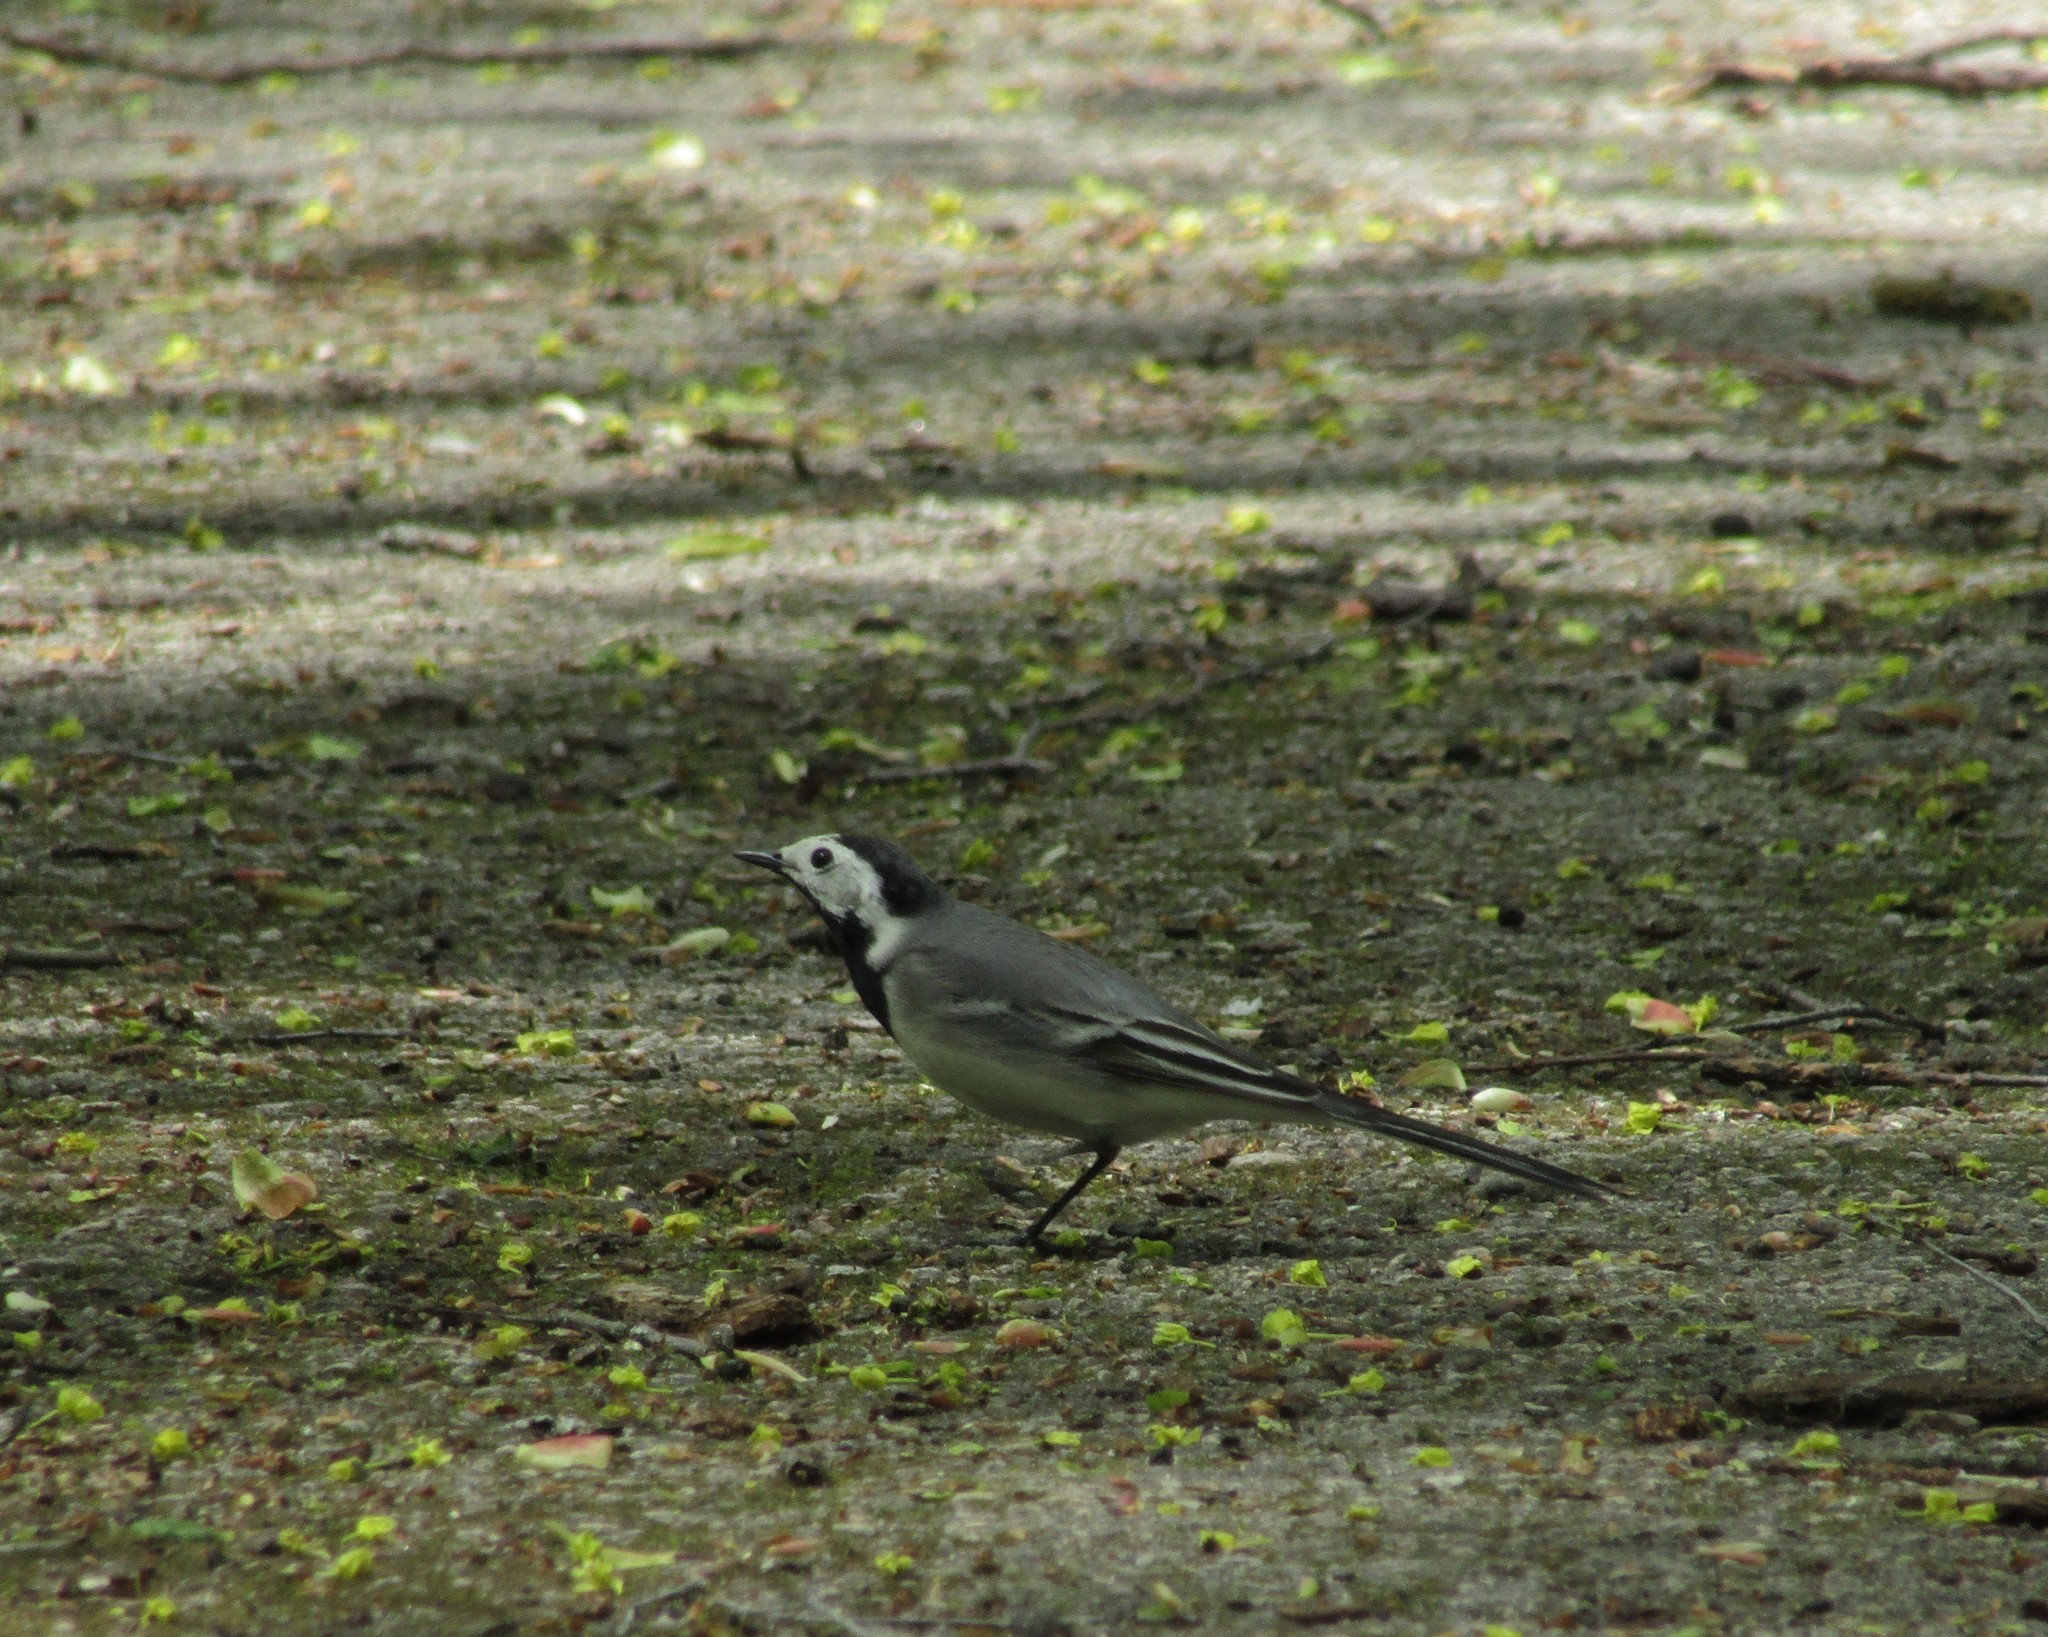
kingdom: Animalia
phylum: Chordata
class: Aves
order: Passeriformes
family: Motacillidae
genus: Motacilla
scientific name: Motacilla alba
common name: White wagtail
